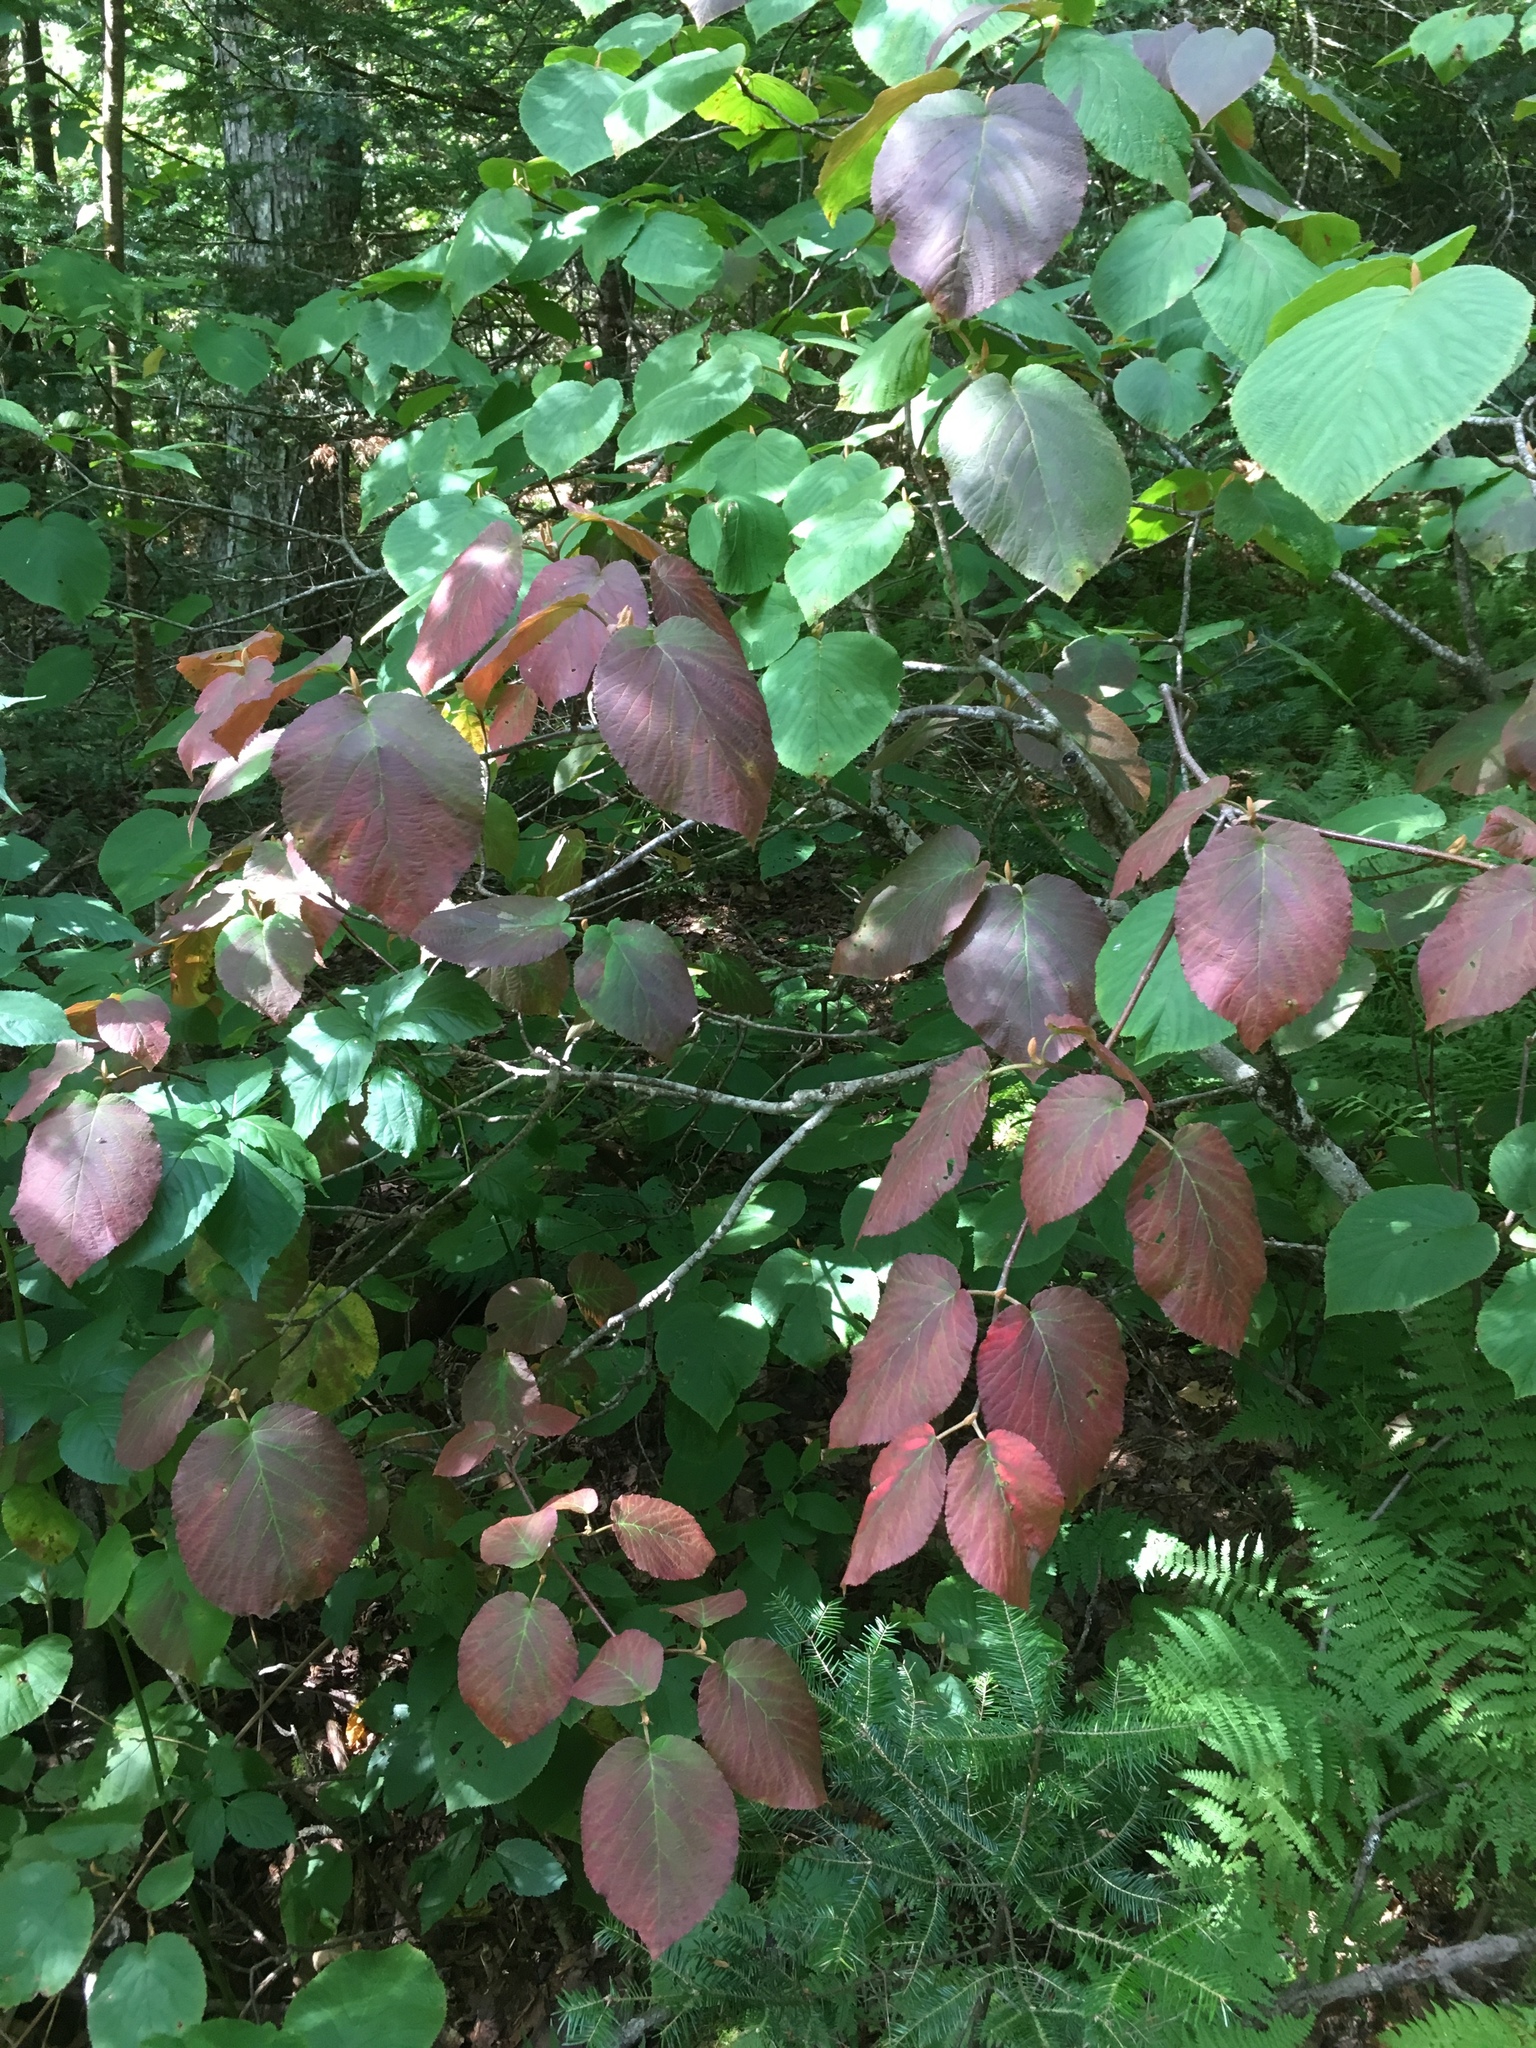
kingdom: Plantae
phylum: Tracheophyta
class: Magnoliopsida
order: Dipsacales
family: Viburnaceae
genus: Viburnum
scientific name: Viburnum lantanoides
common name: Hobblebush
